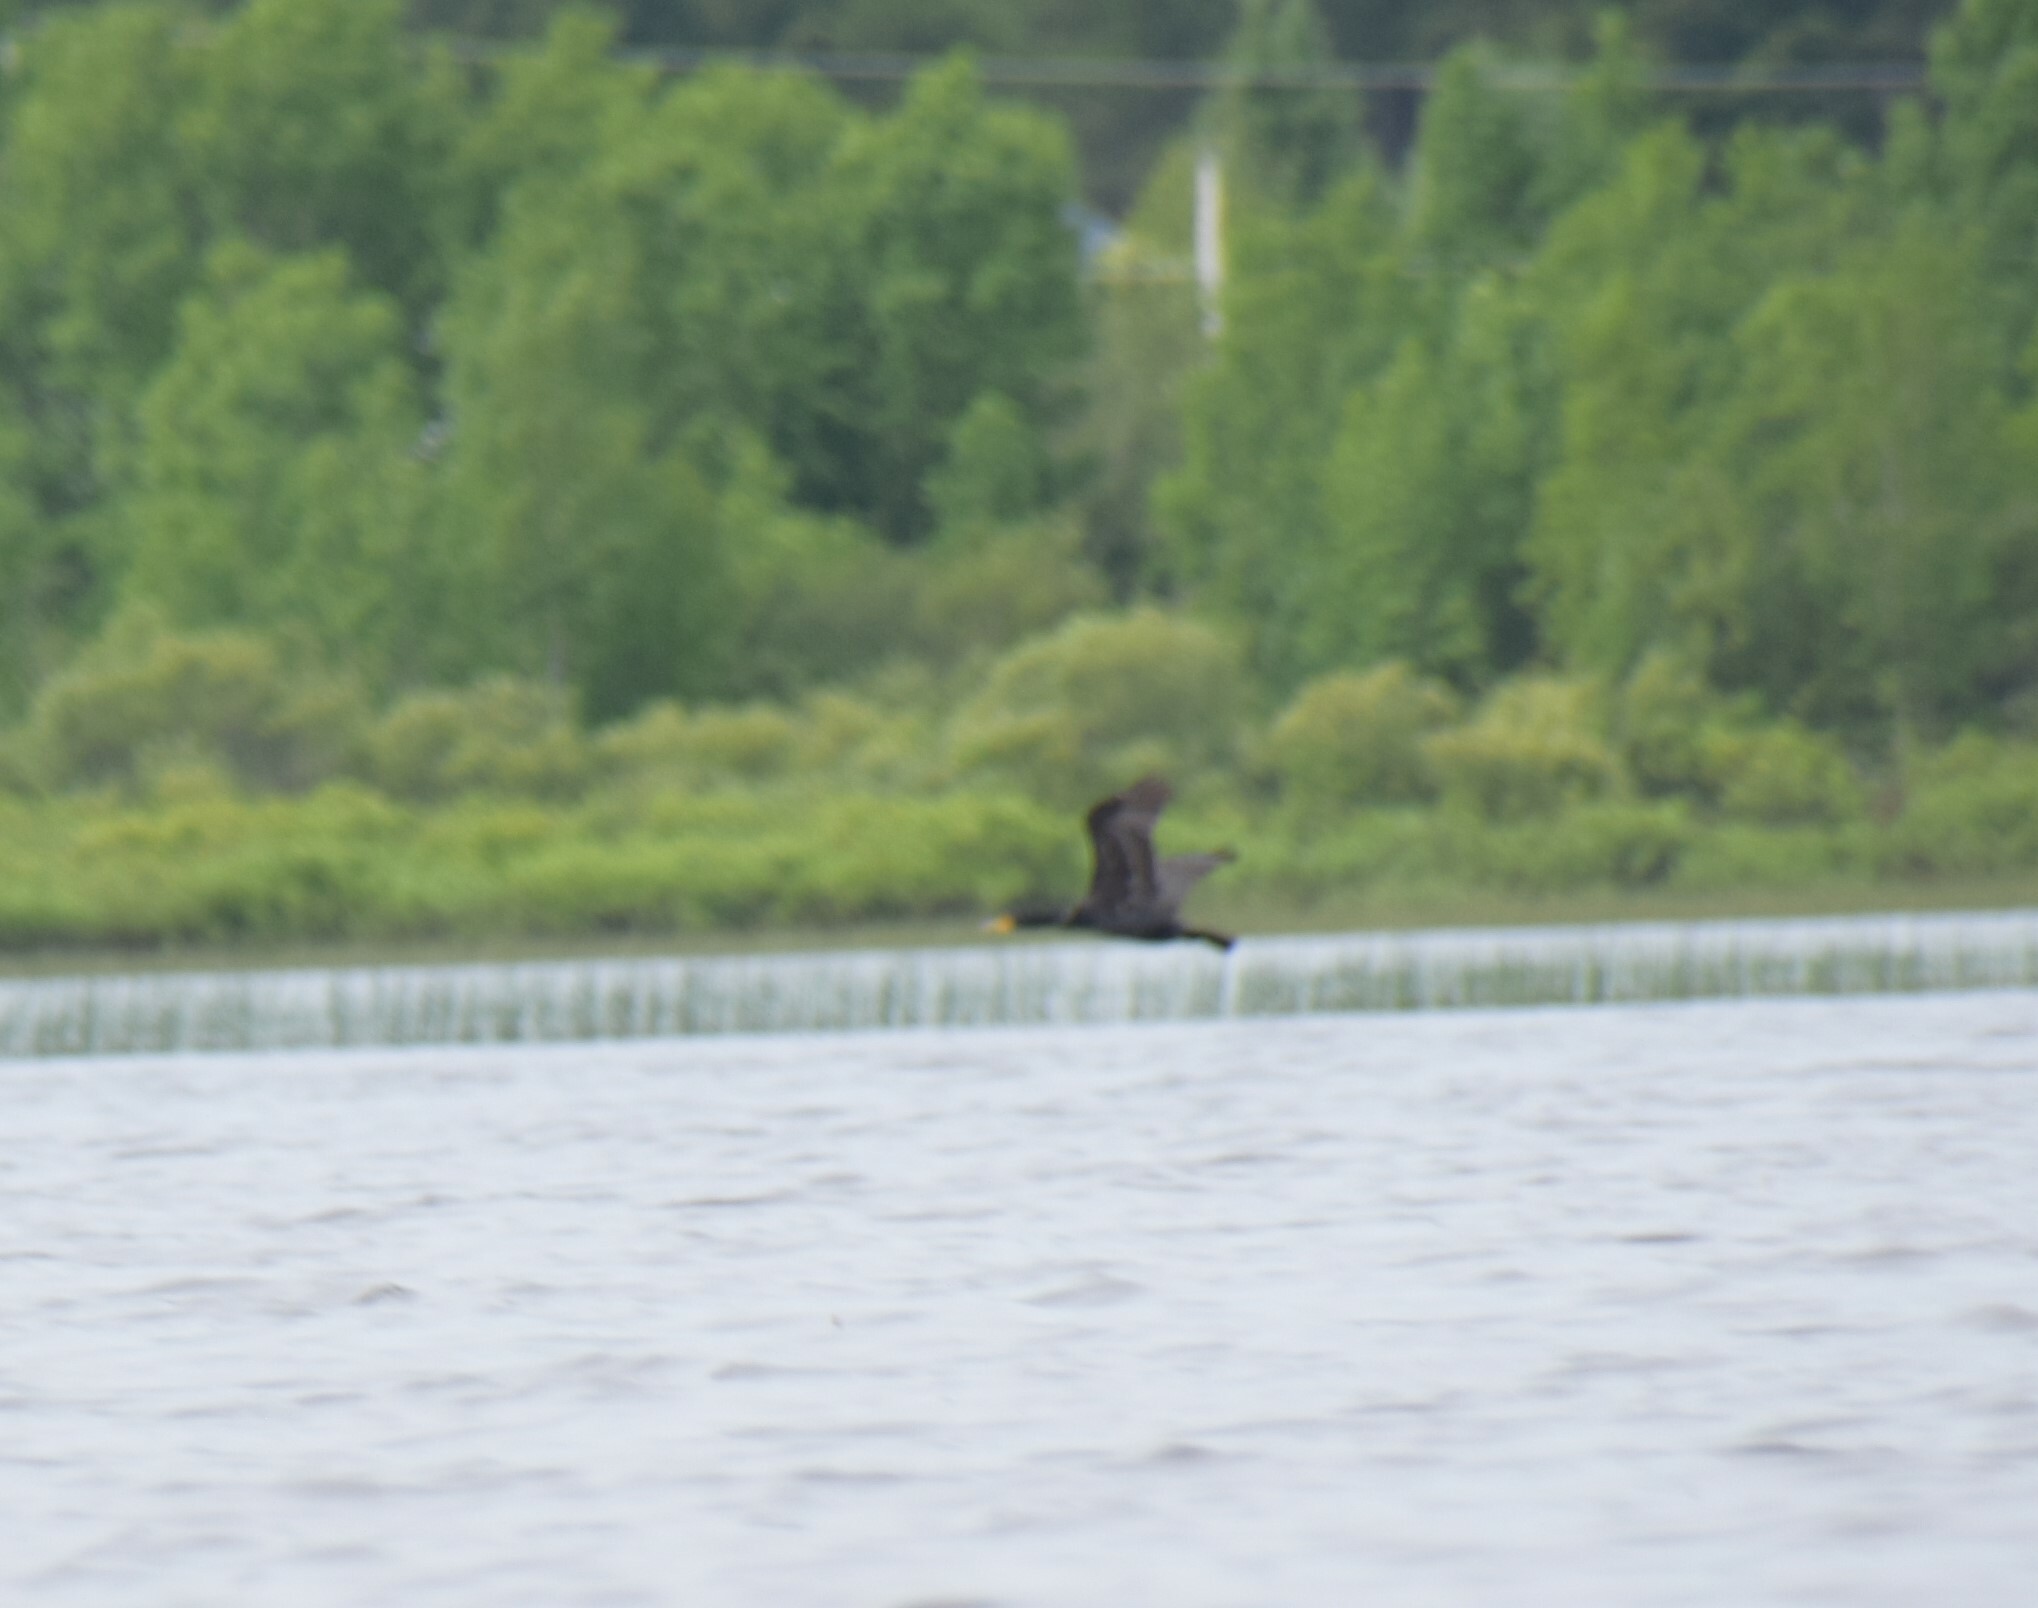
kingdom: Animalia
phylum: Chordata
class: Aves
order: Suliformes
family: Phalacrocoracidae
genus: Phalacrocorax
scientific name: Phalacrocorax auritus
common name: Double-crested cormorant
